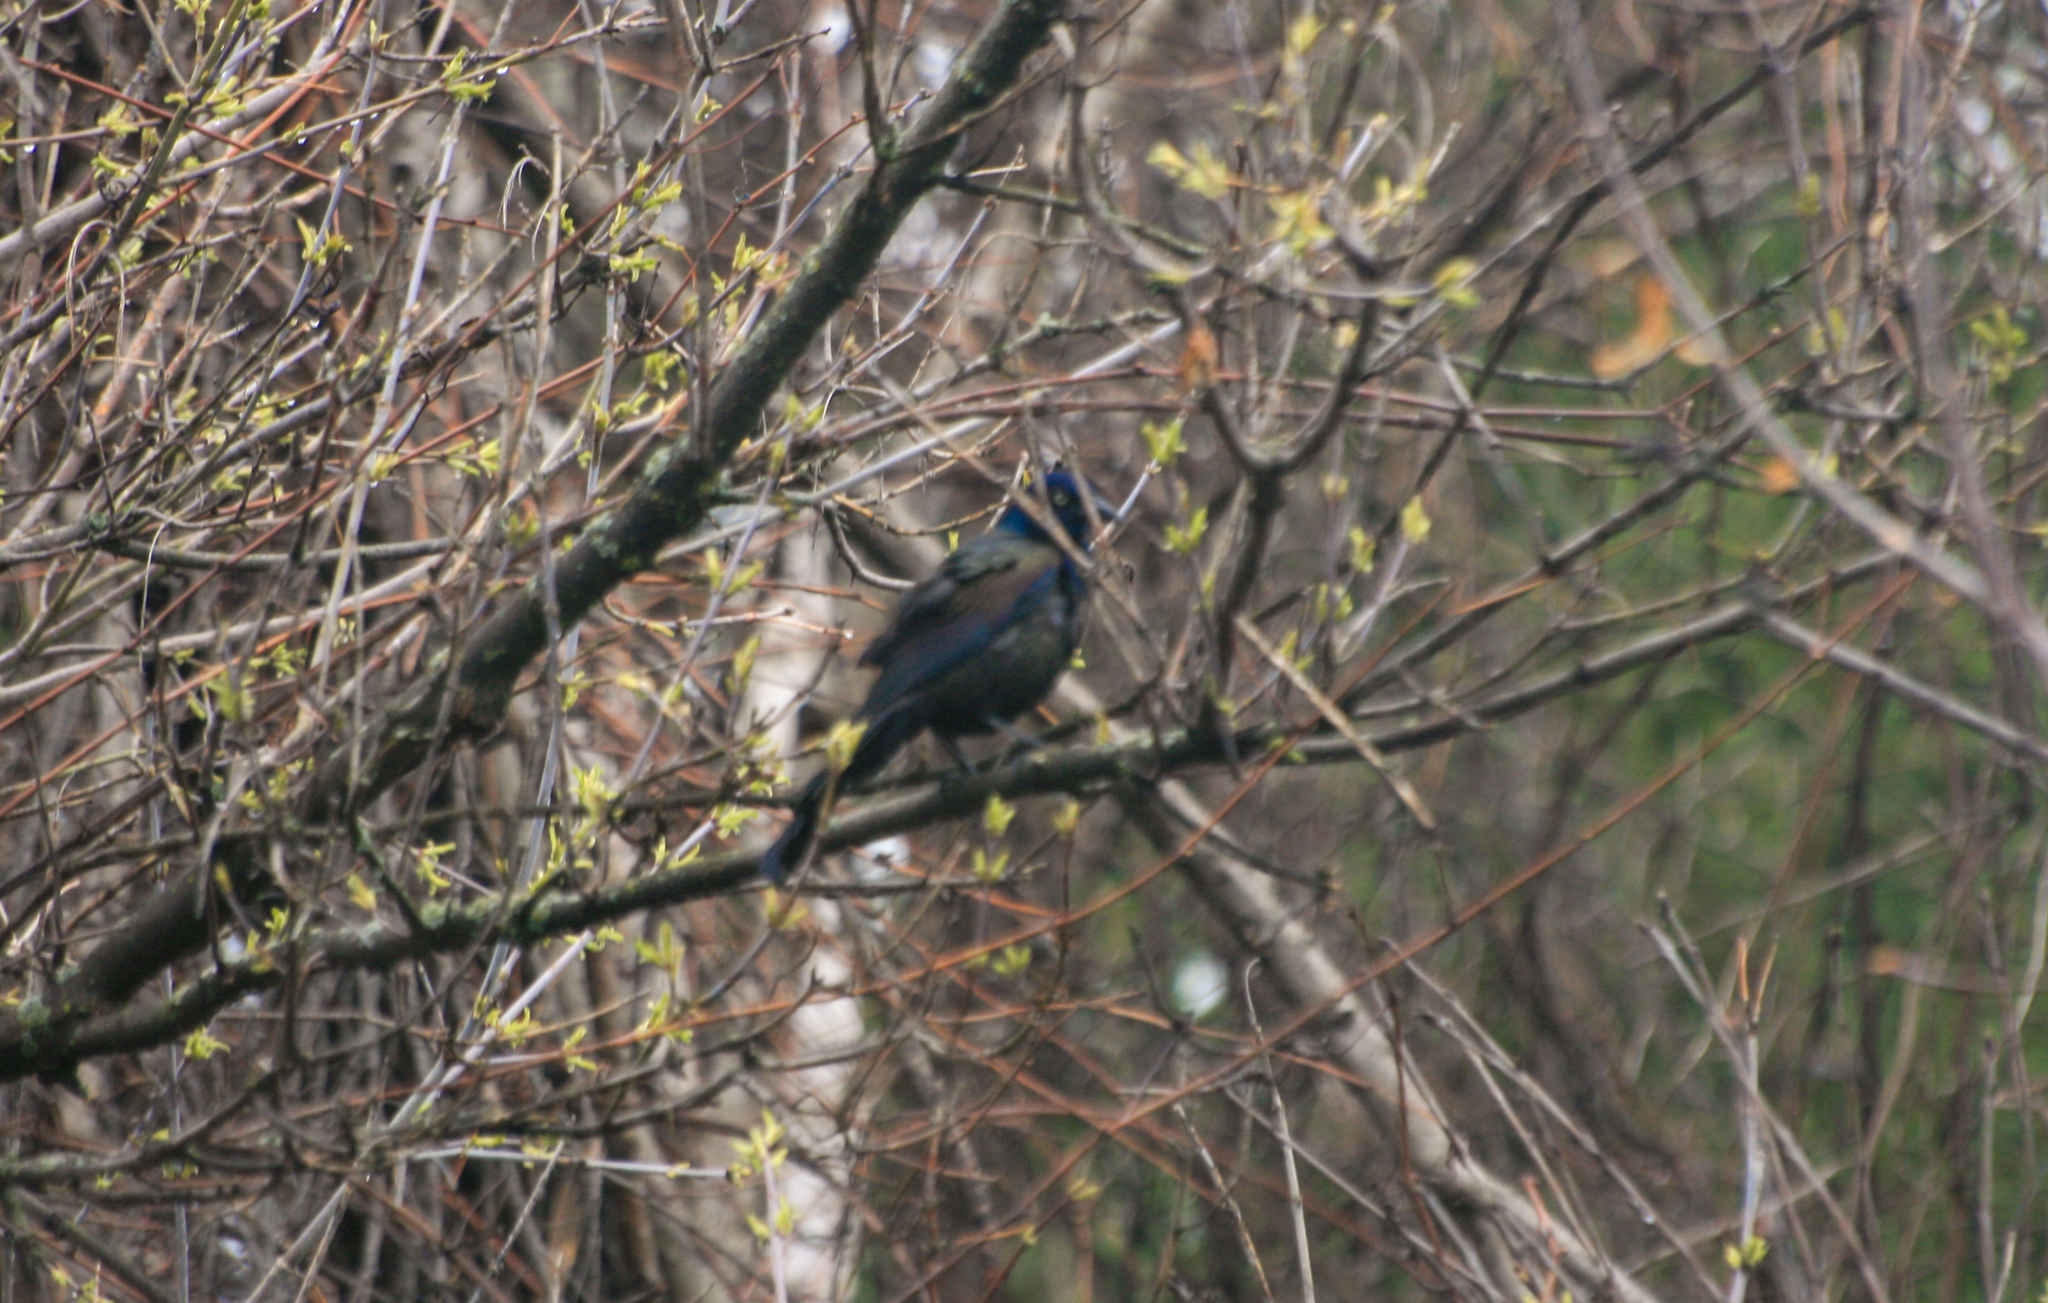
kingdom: Animalia
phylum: Chordata
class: Aves
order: Passeriformes
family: Icteridae
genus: Quiscalus
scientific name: Quiscalus quiscula
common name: Common grackle
